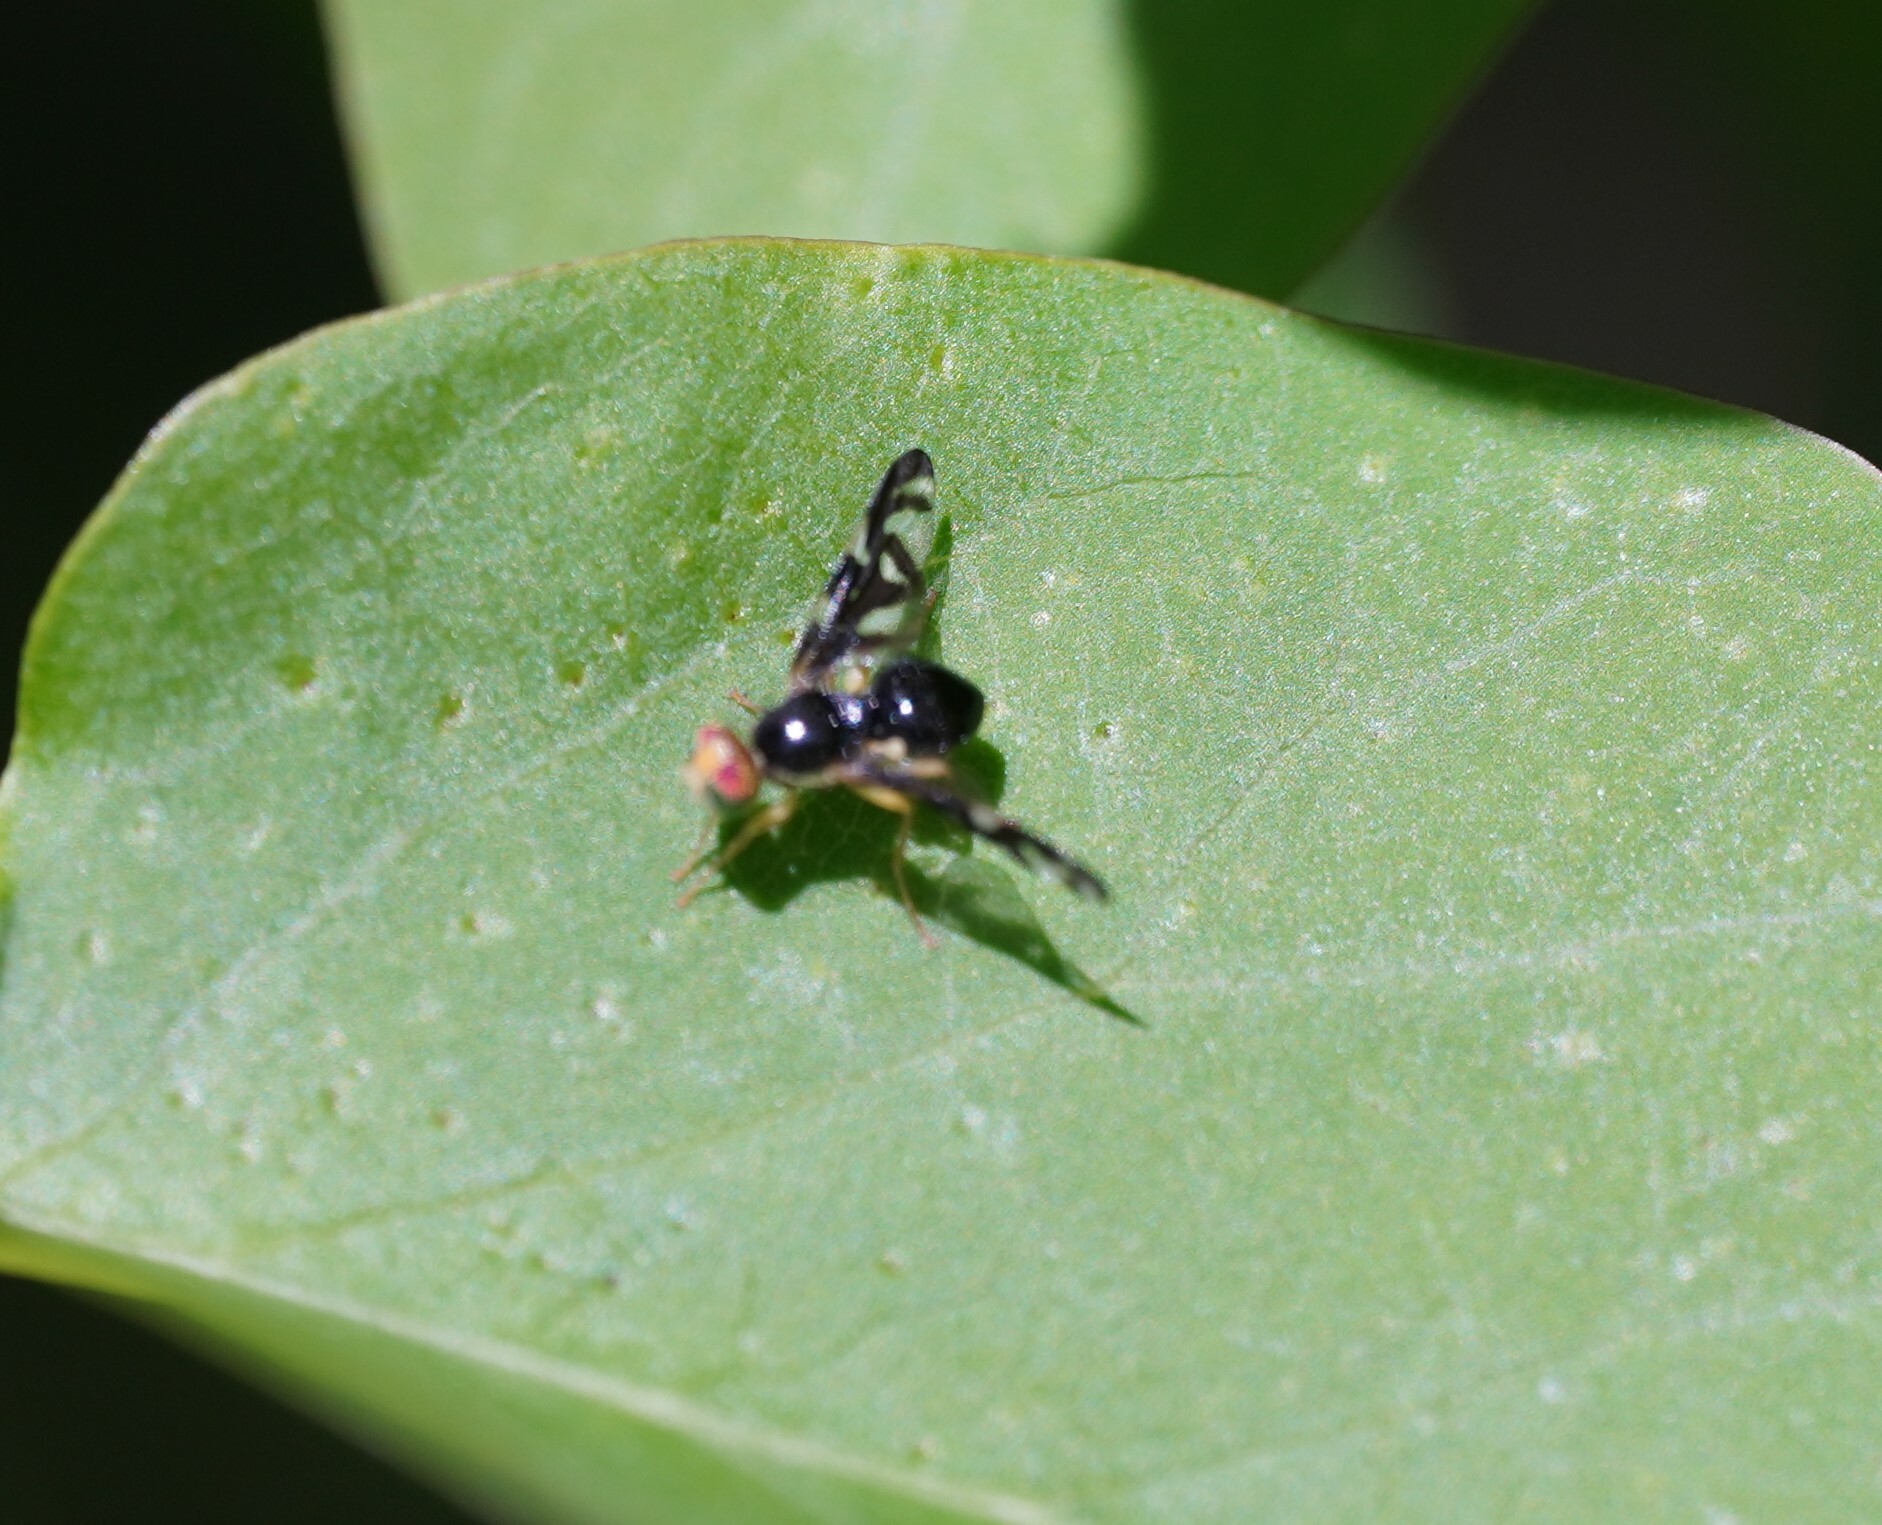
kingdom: Animalia
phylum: Arthropoda
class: Insecta
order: Diptera
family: Tephritidae
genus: Euleia
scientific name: Euleia heraclei
